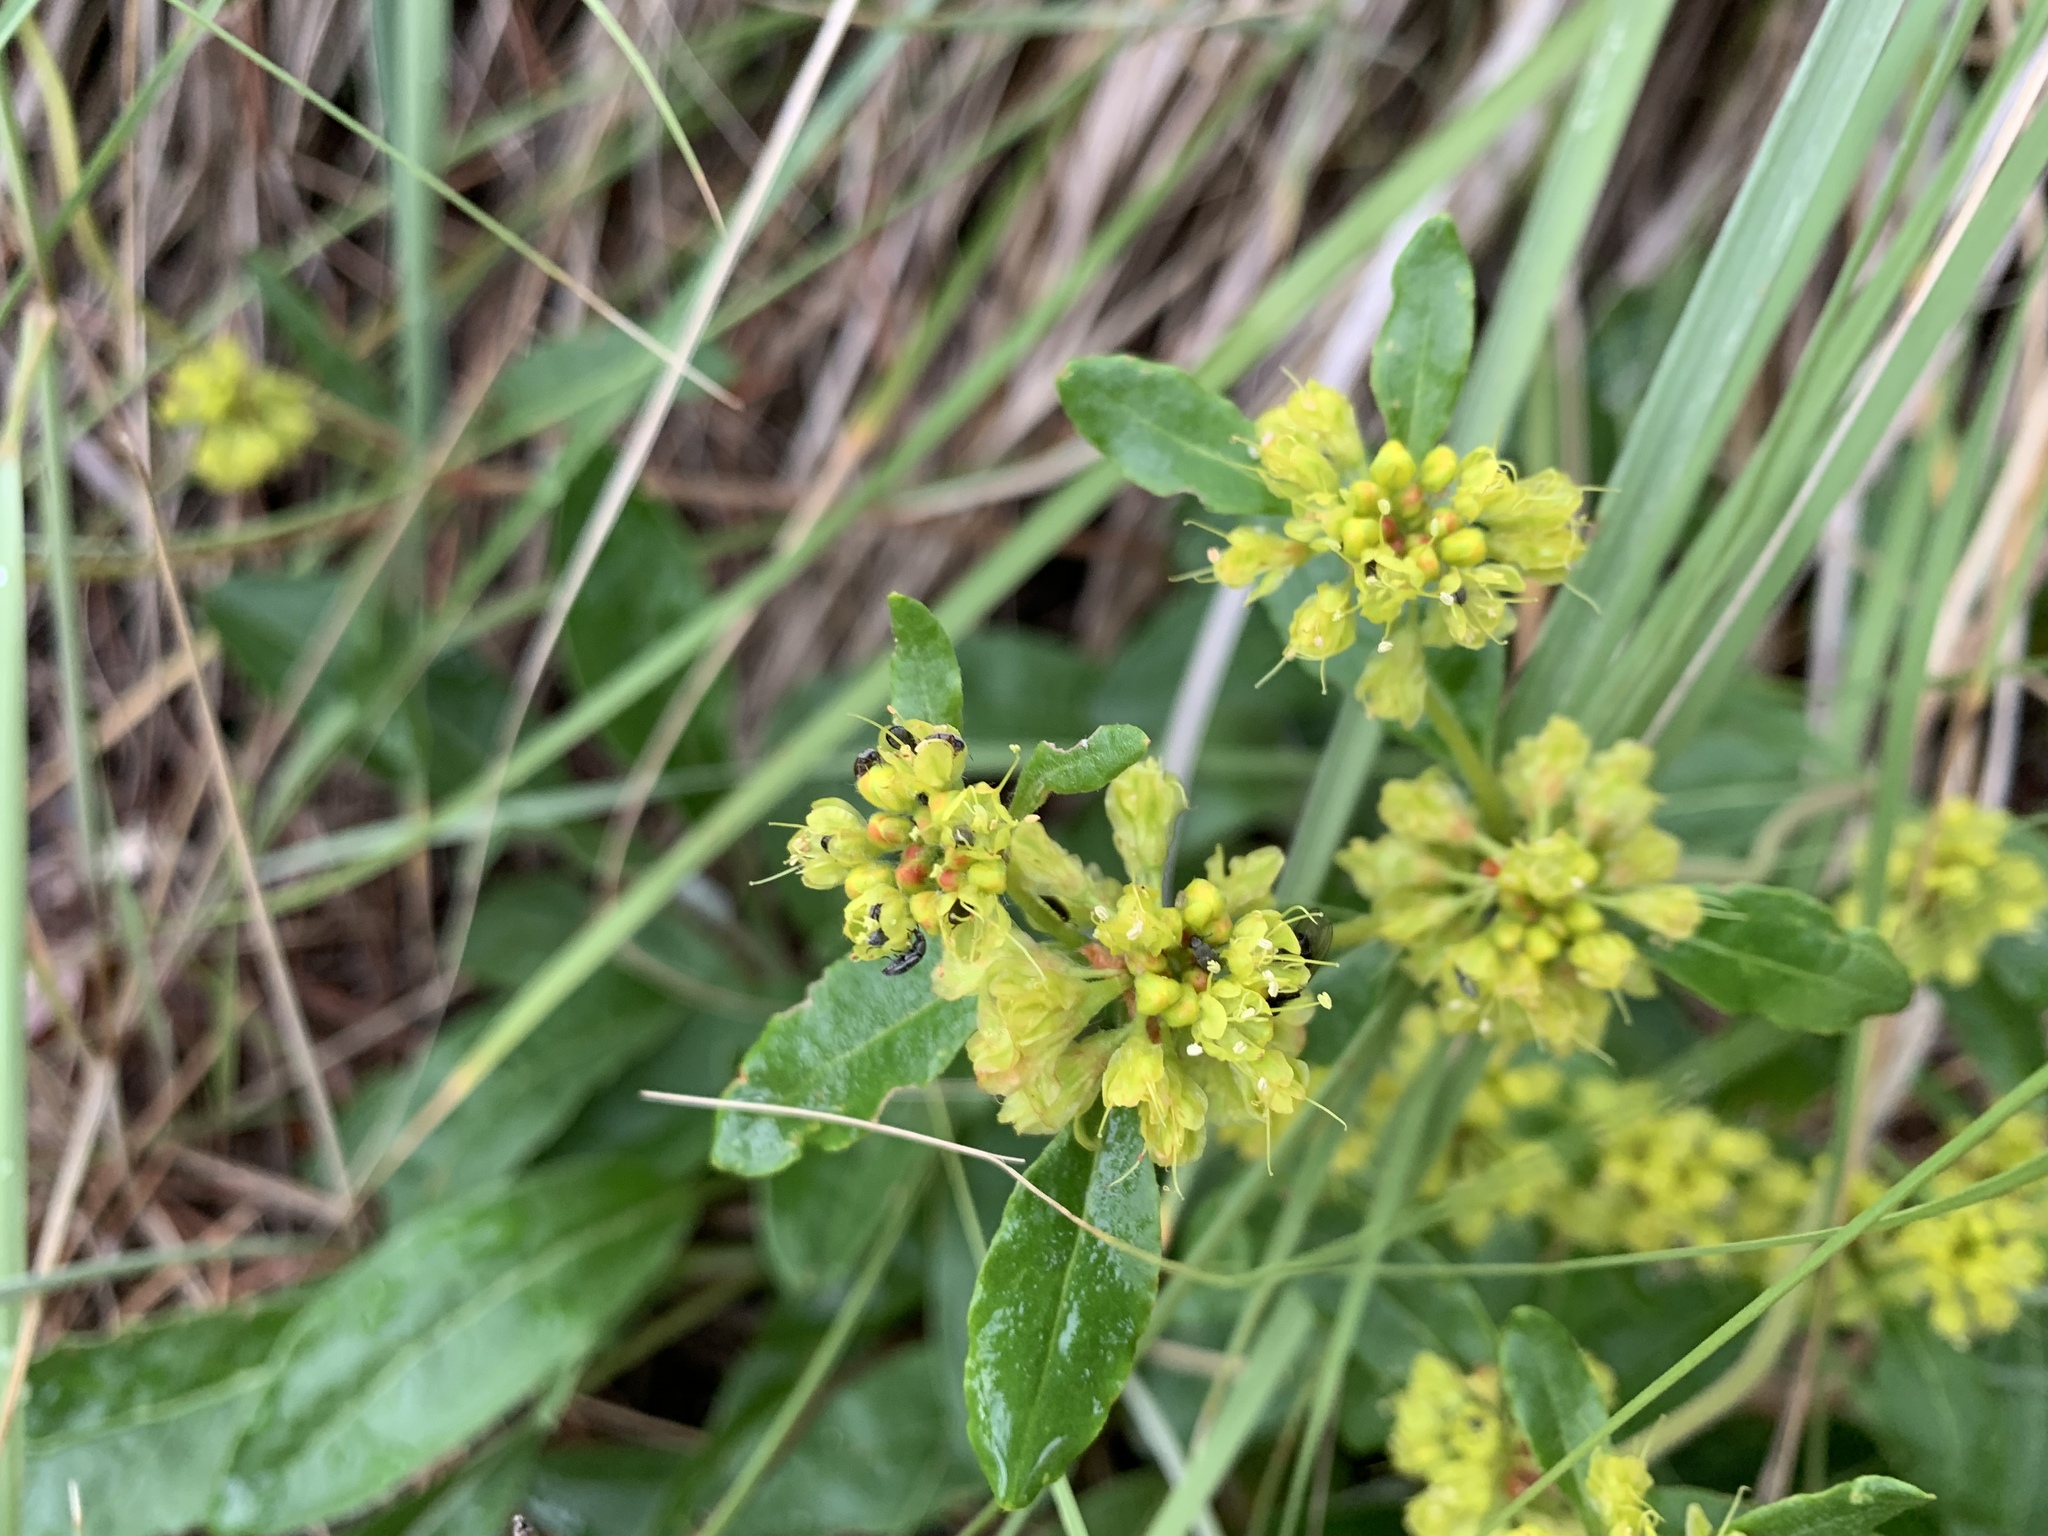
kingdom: Plantae
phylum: Tracheophyta
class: Magnoliopsida
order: Caryophyllales
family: Polygonaceae
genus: Eriogonum
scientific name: Eriogonum wootonii
